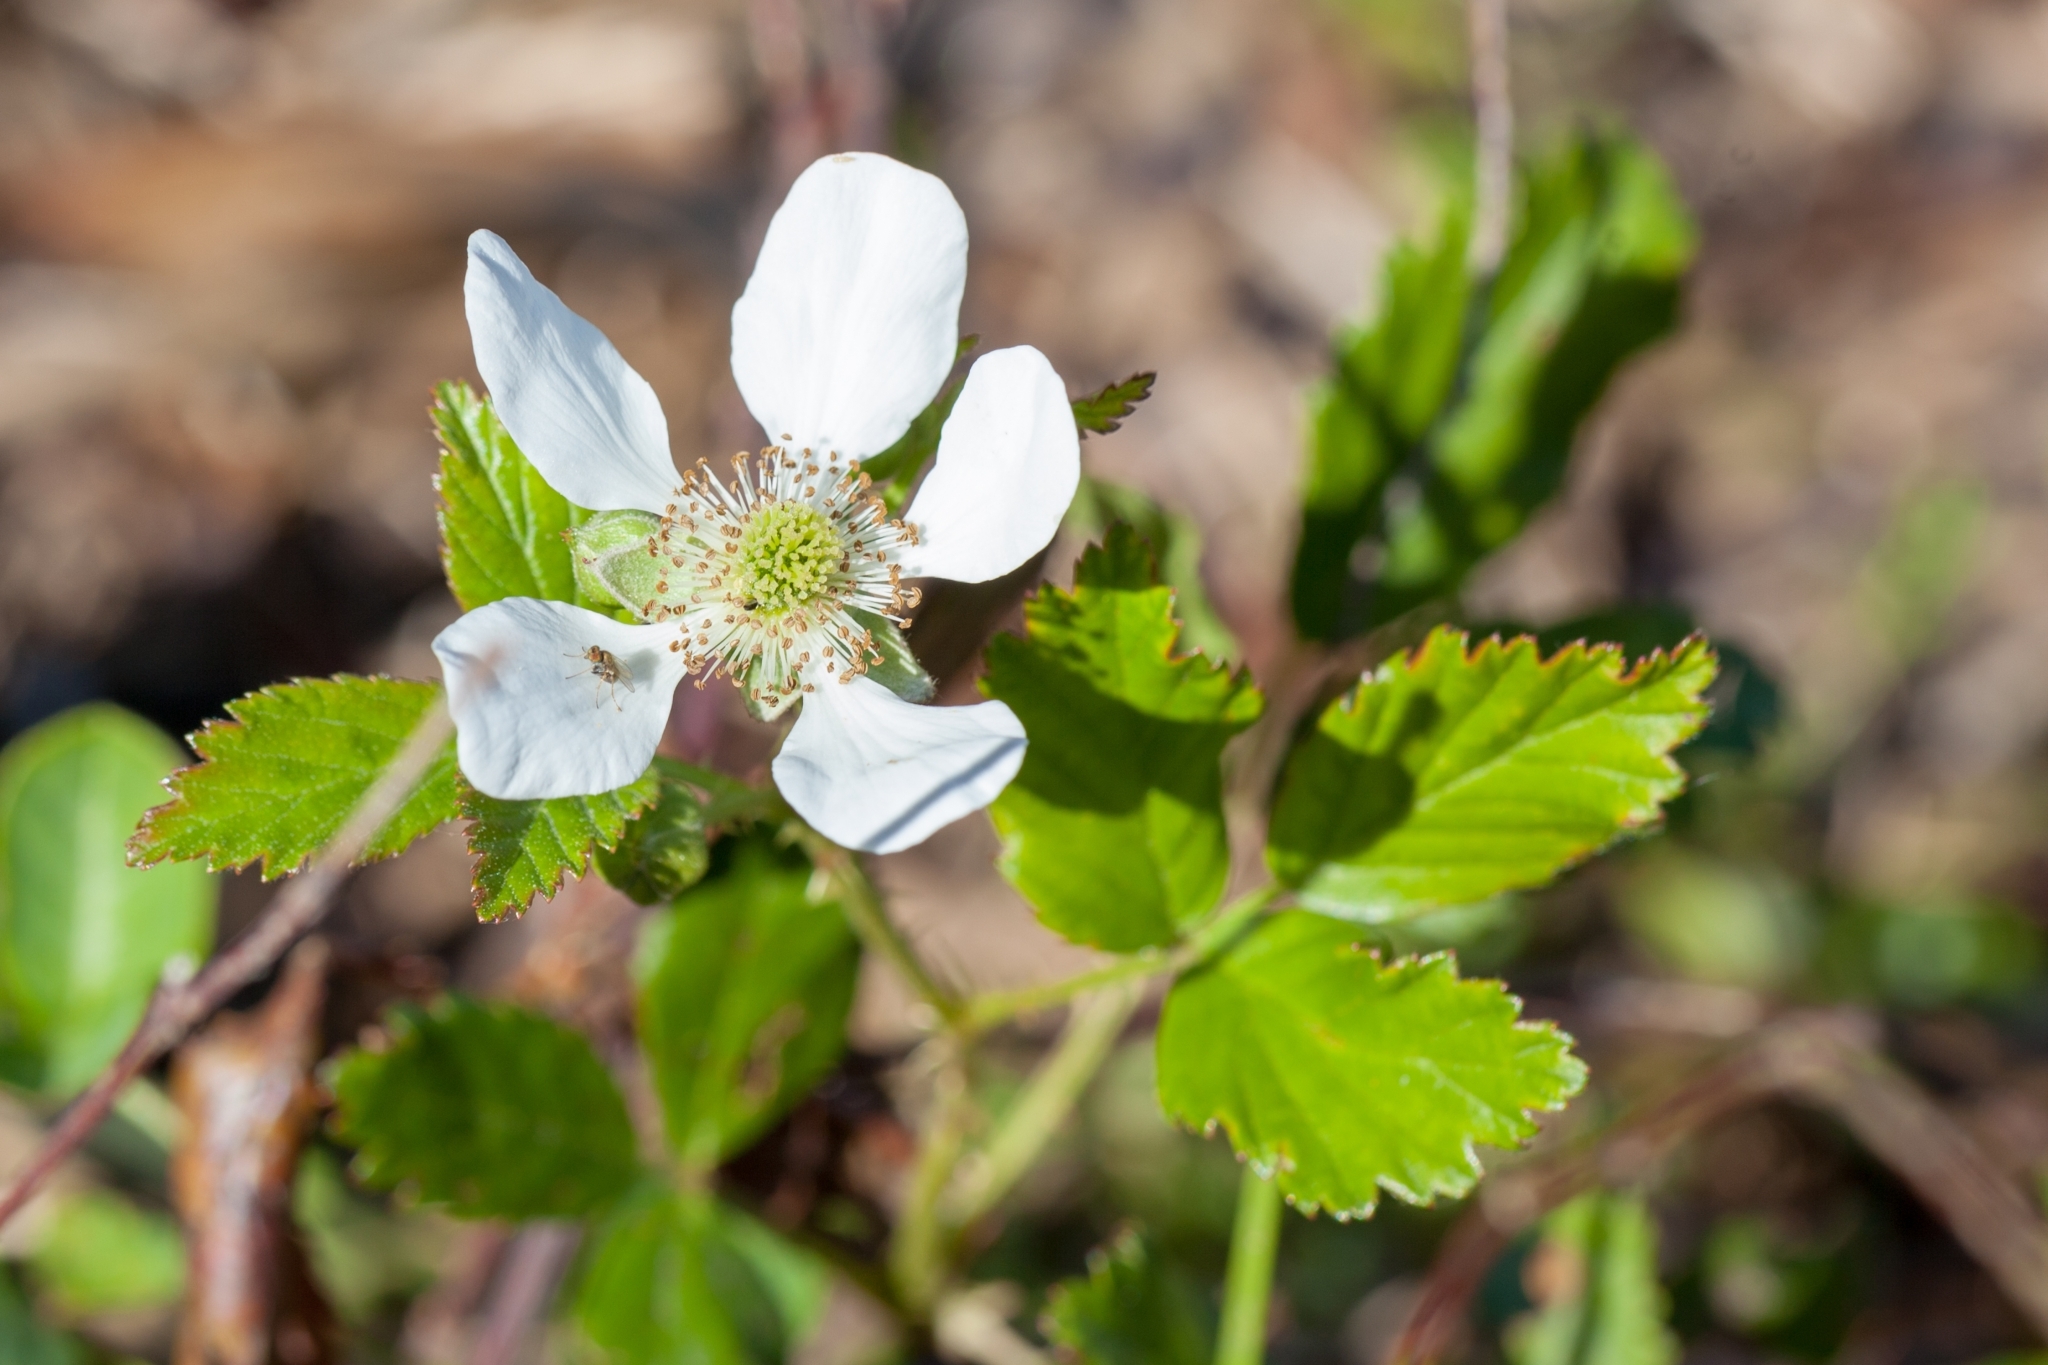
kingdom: Plantae
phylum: Tracheophyta
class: Magnoliopsida
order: Rosales
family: Rosaceae
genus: Rubus
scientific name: Rubus trivialis
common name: Southern dewberry
